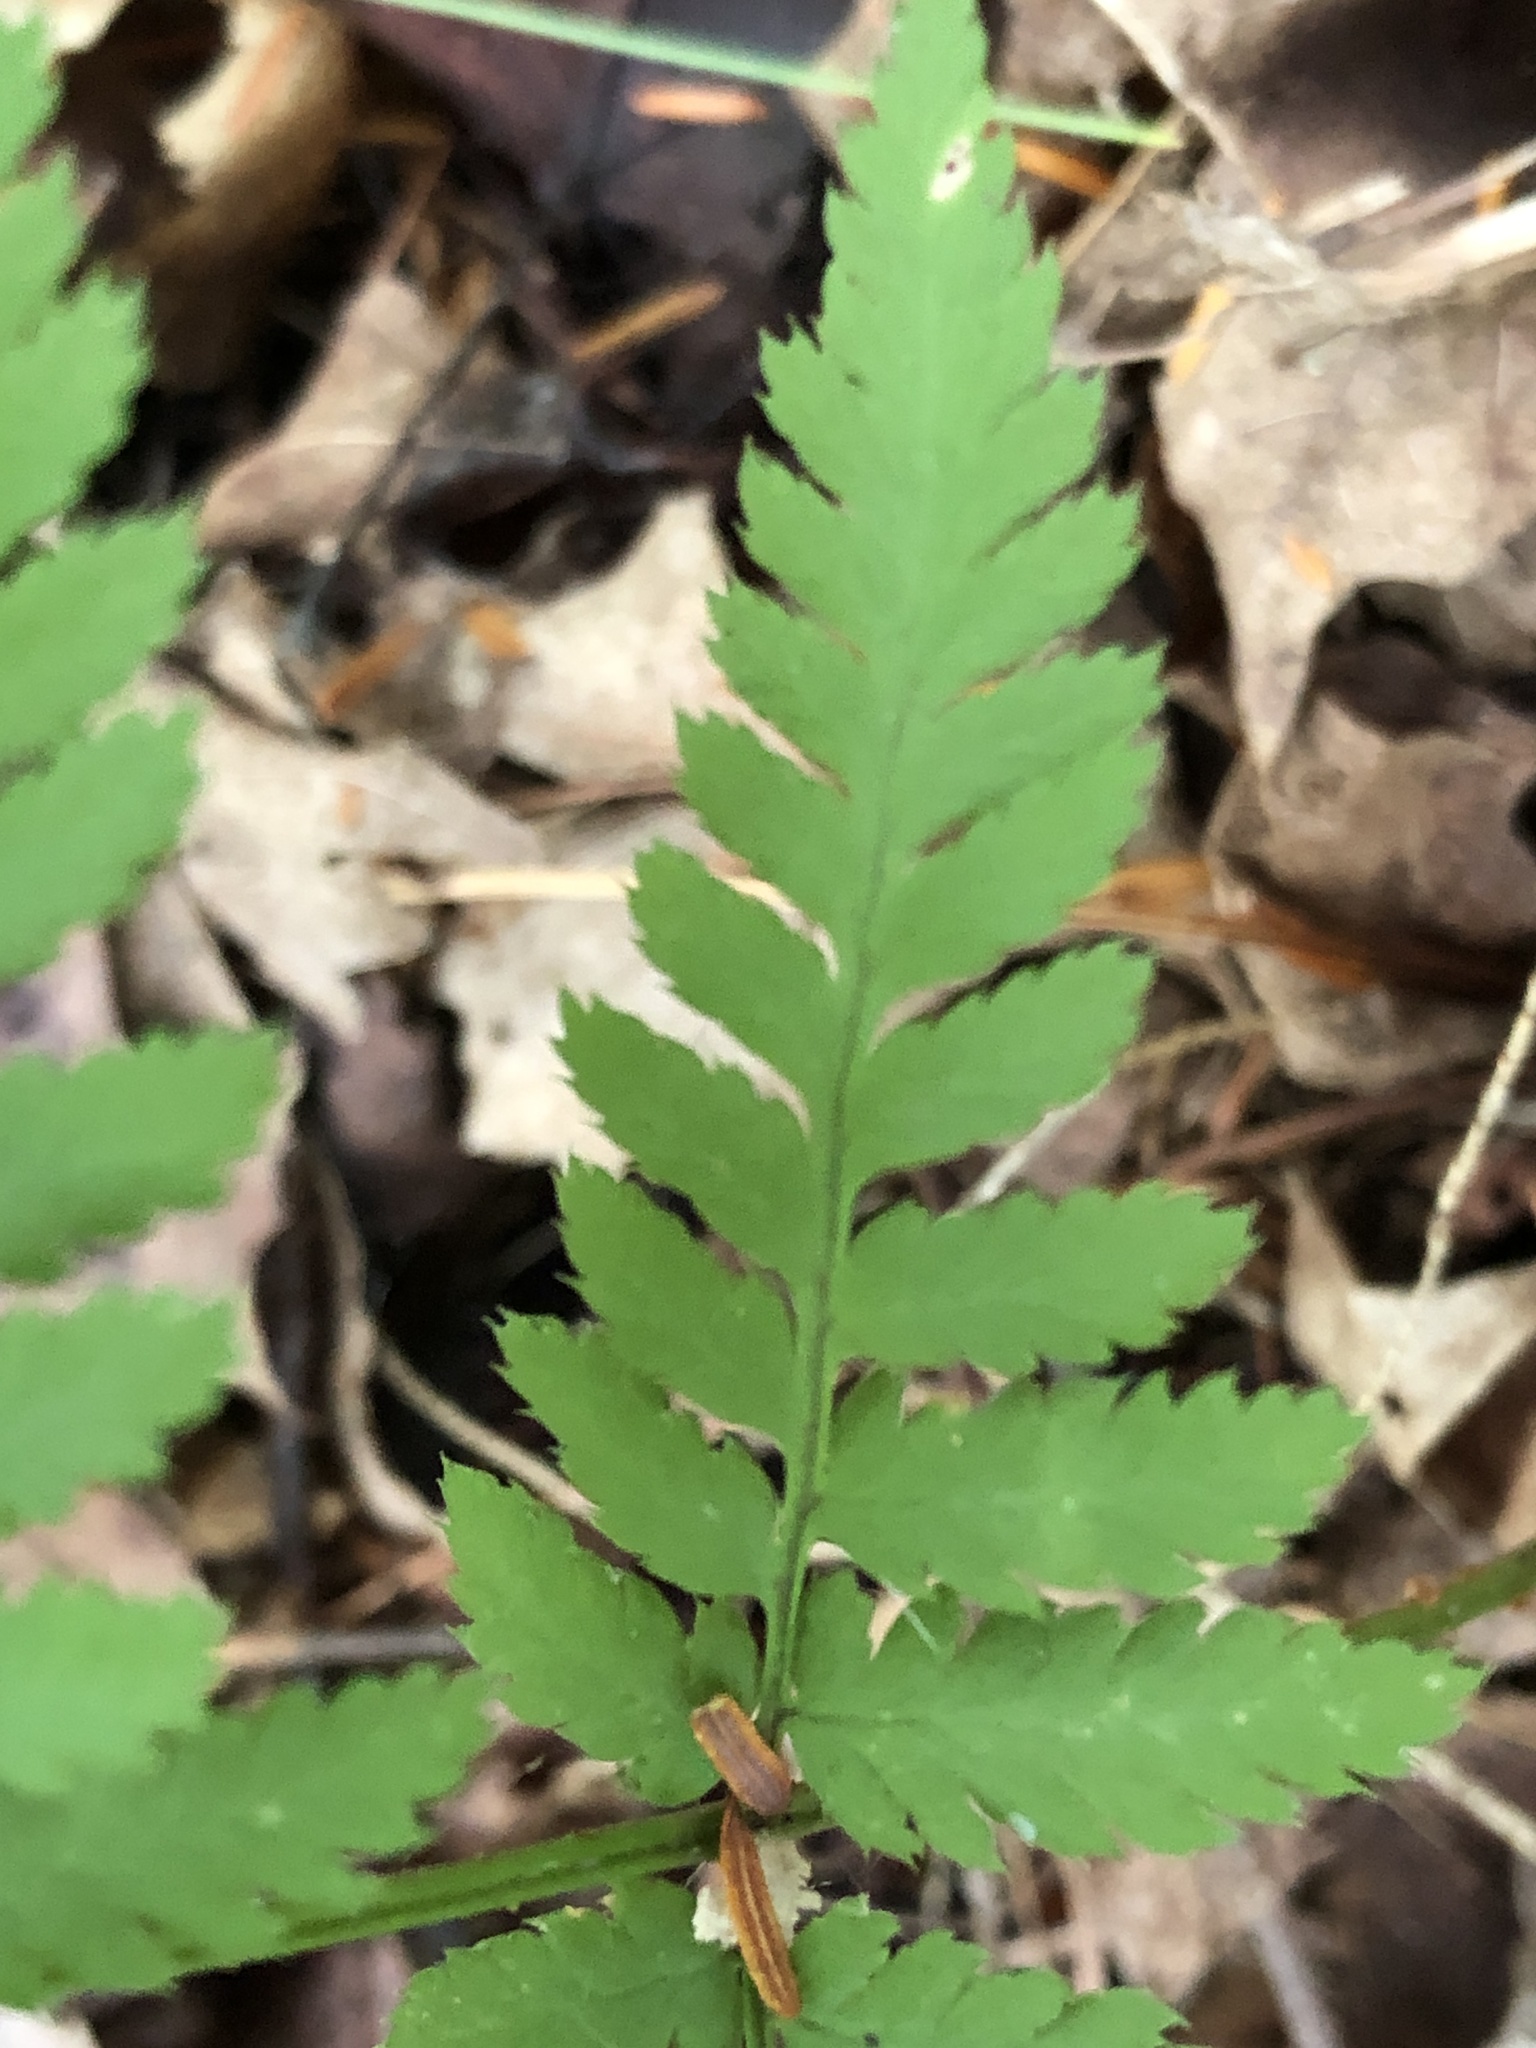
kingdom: Plantae
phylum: Tracheophyta
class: Polypodiopsida
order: Polypodiales
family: Dryopteridaceae
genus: Dryopteris
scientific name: Dryopteris carthusiana
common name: Narrow buckler-fern
